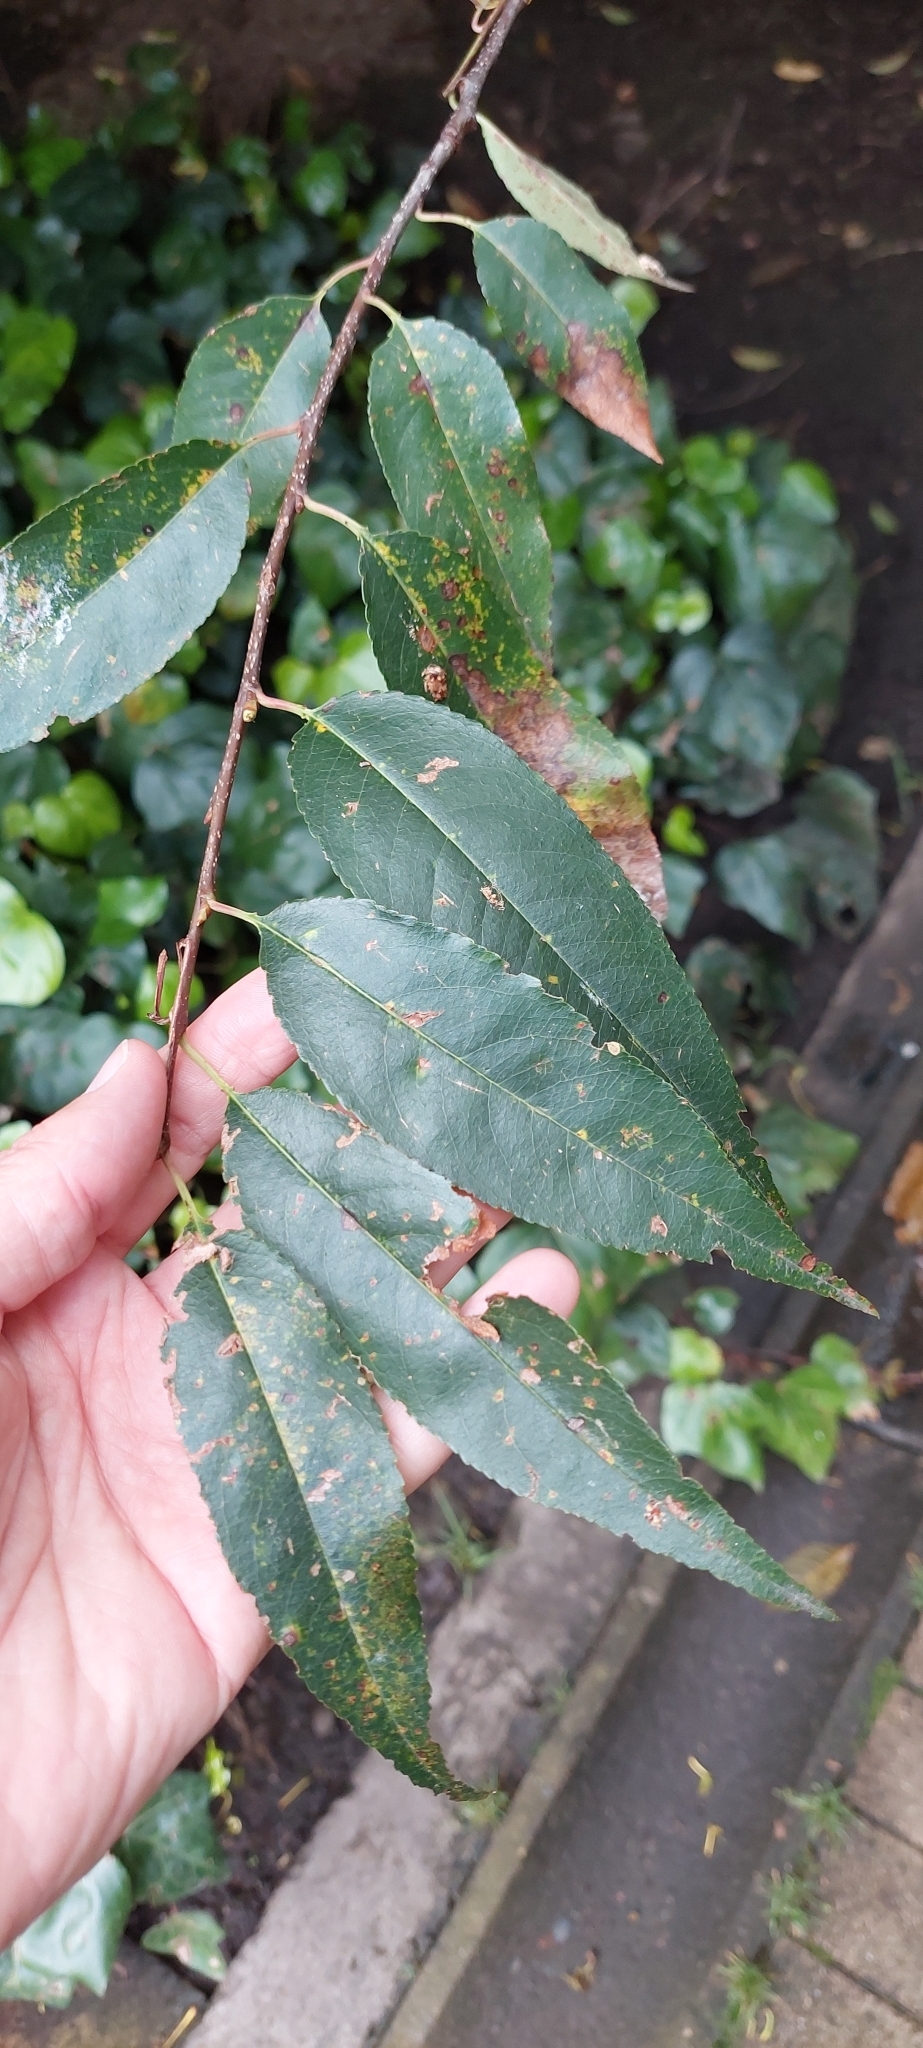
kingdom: Plantae
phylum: Tracheophyta
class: Magnoliopsida
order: Rosales
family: Rosaceae
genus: Prunus
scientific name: Prunus serotina
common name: Black cherry
